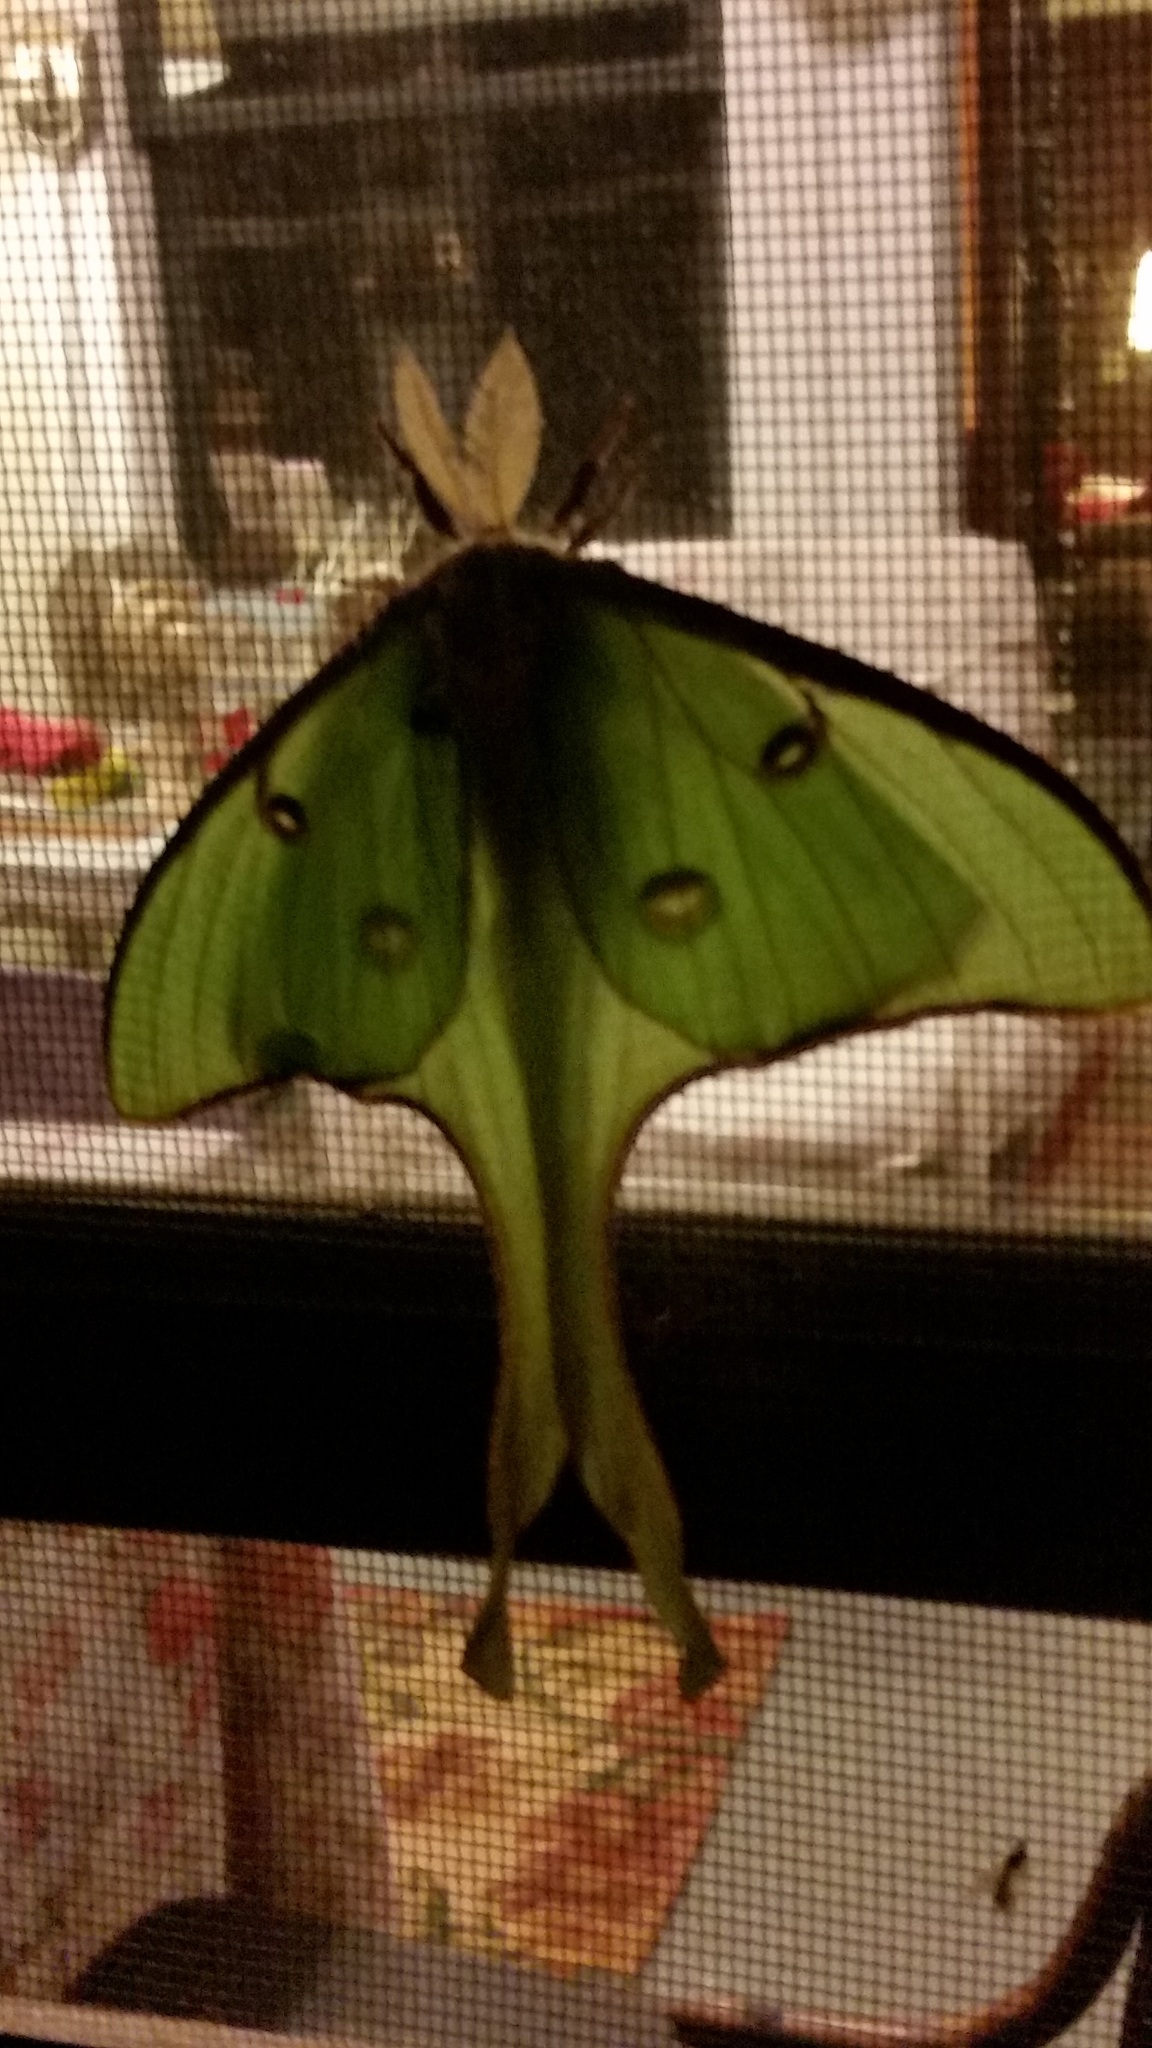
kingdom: Animalia
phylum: Arthropoda
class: Insecta
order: Lepidoptera
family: Saturniidae
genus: Actias
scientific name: Actias luna
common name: Luna moth
